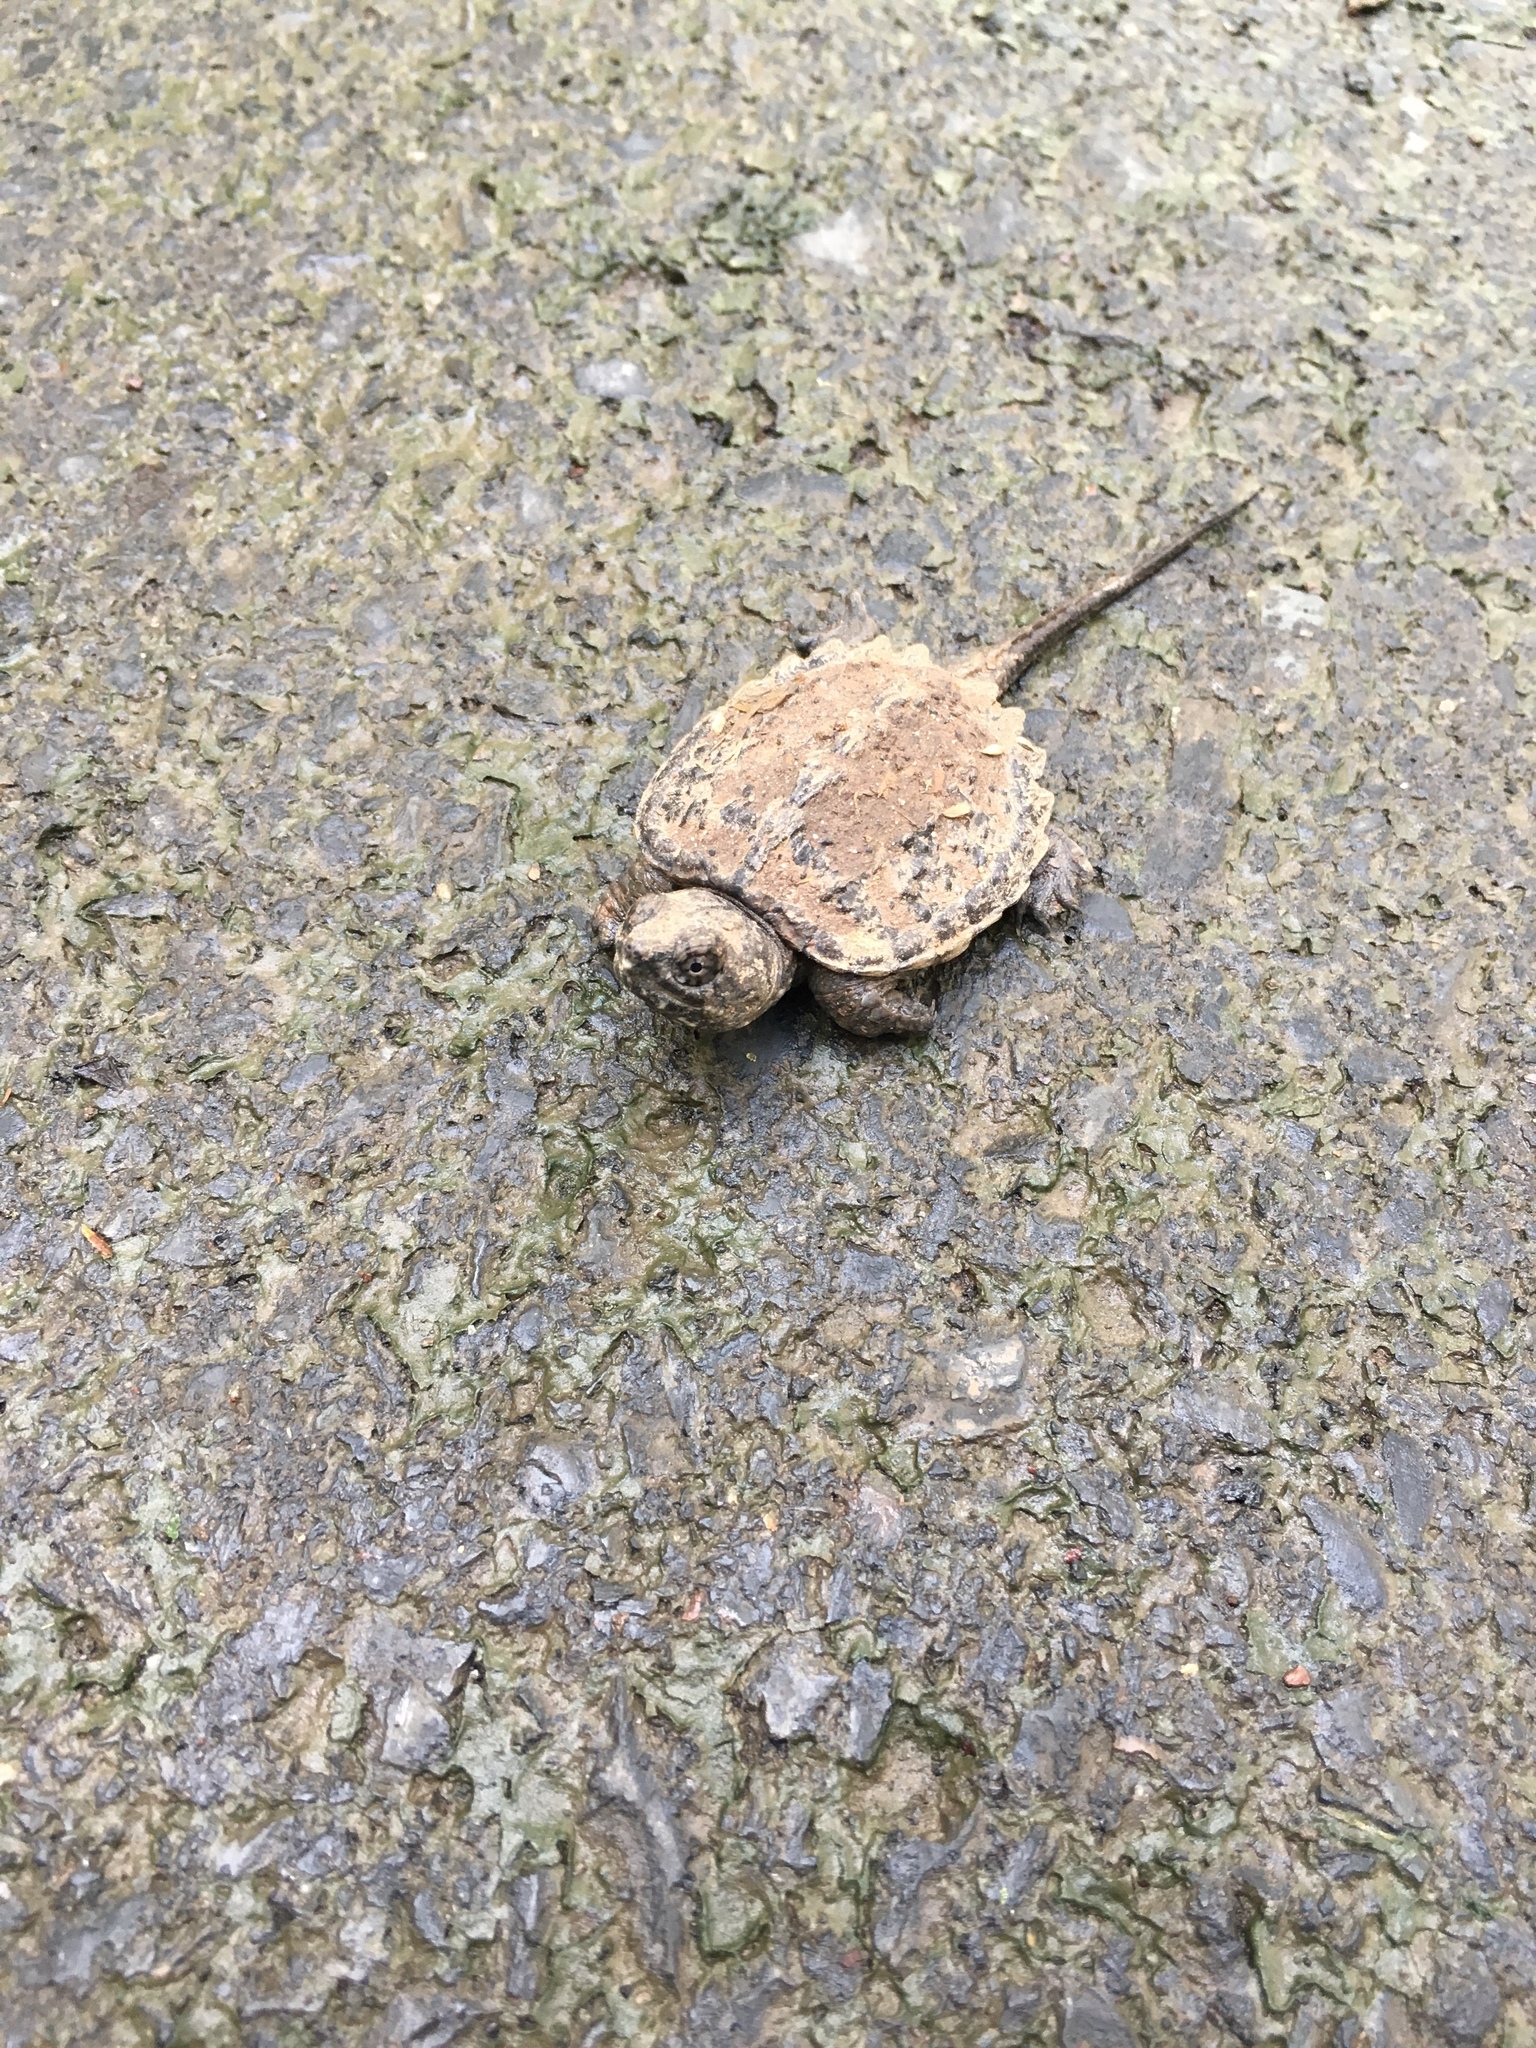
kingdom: Animalia
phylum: Chordata
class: Testudines
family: Chelydridae
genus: Chelydra
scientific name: Chelydra serpentina
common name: Common snapping turtle
